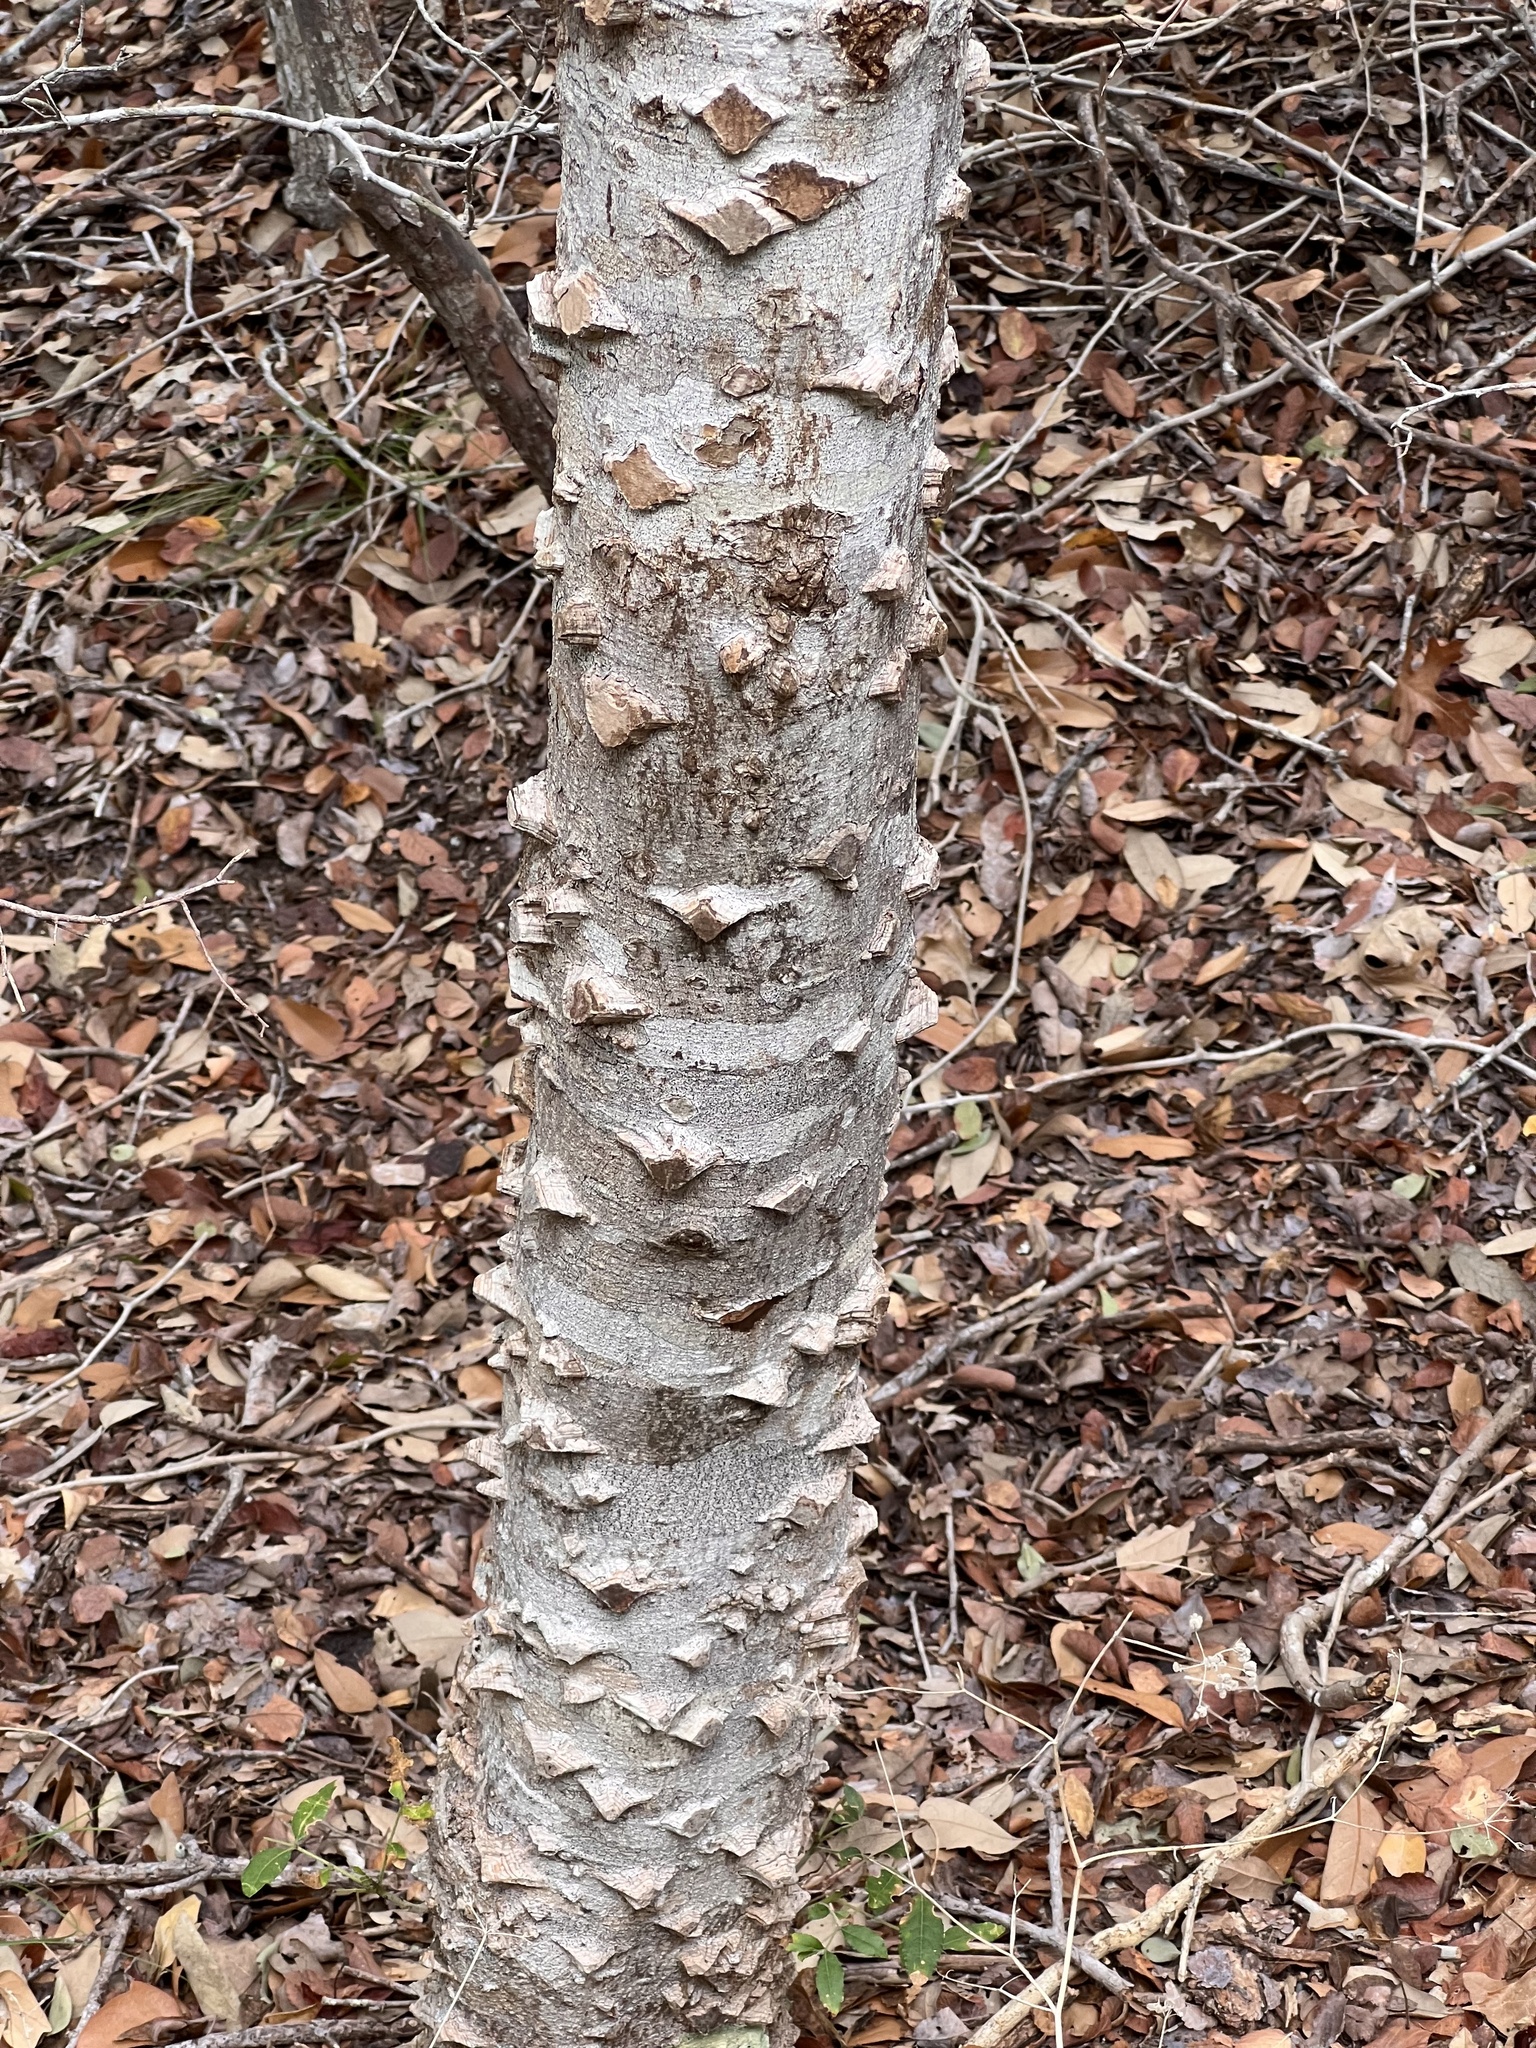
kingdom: Plantae
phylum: Tracheophyta
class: Magnoliopsida
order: Sapindales
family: Rutaceae
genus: Zanthoxylum
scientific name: Zanthoxylum clava-herculis
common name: Hercules'-club
